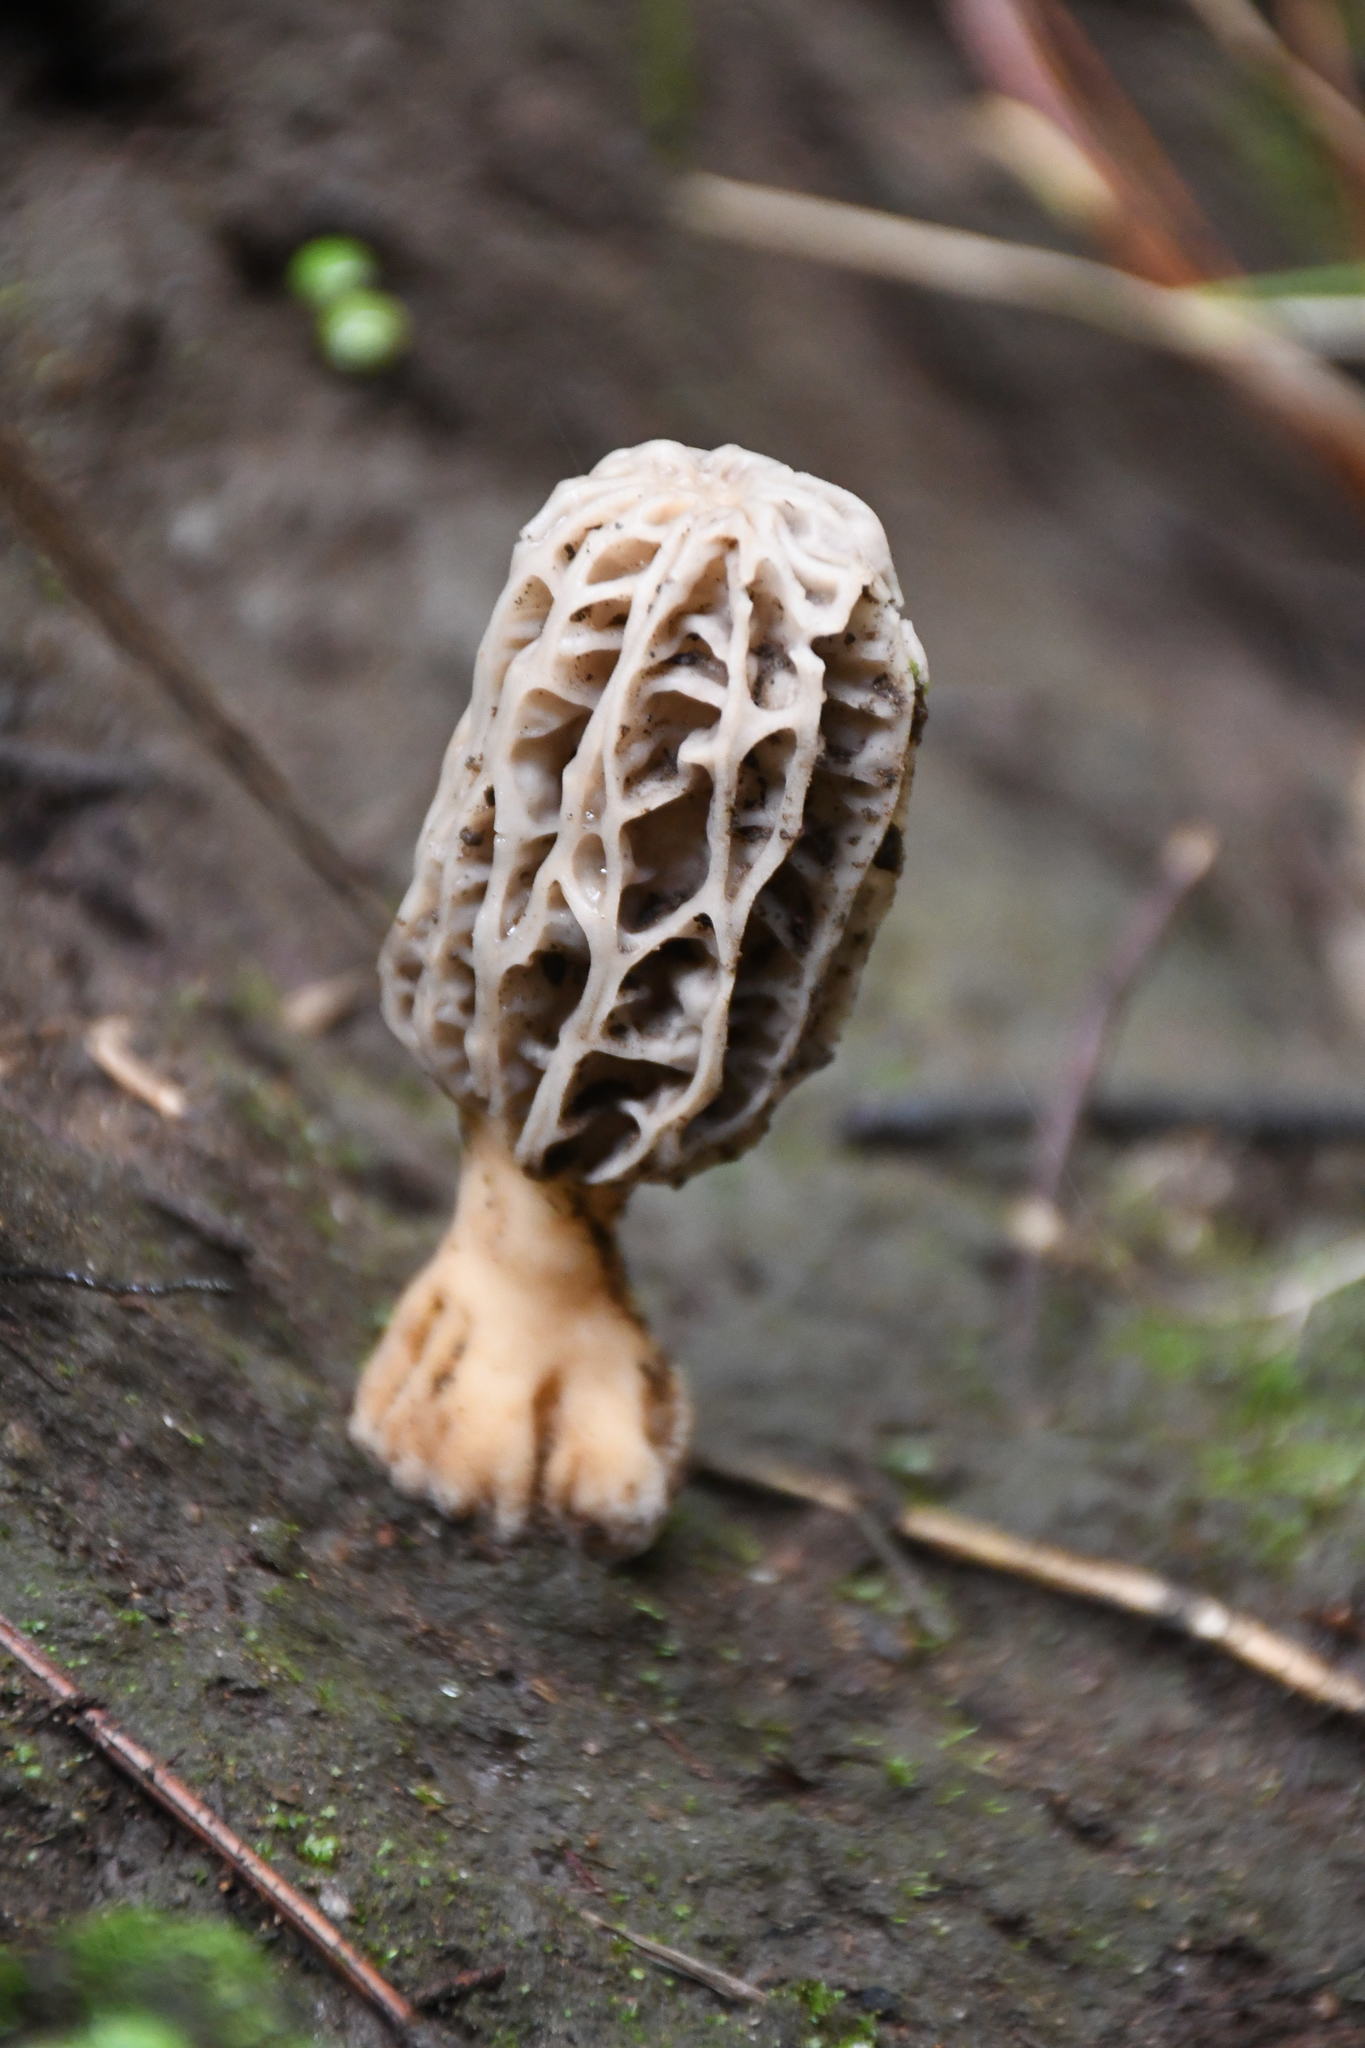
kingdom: Fungi
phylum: Ascomycota
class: Pezizomycetes
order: Pezizales
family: Morchellaceae
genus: Morchella
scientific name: Morchella rufobrunnea
